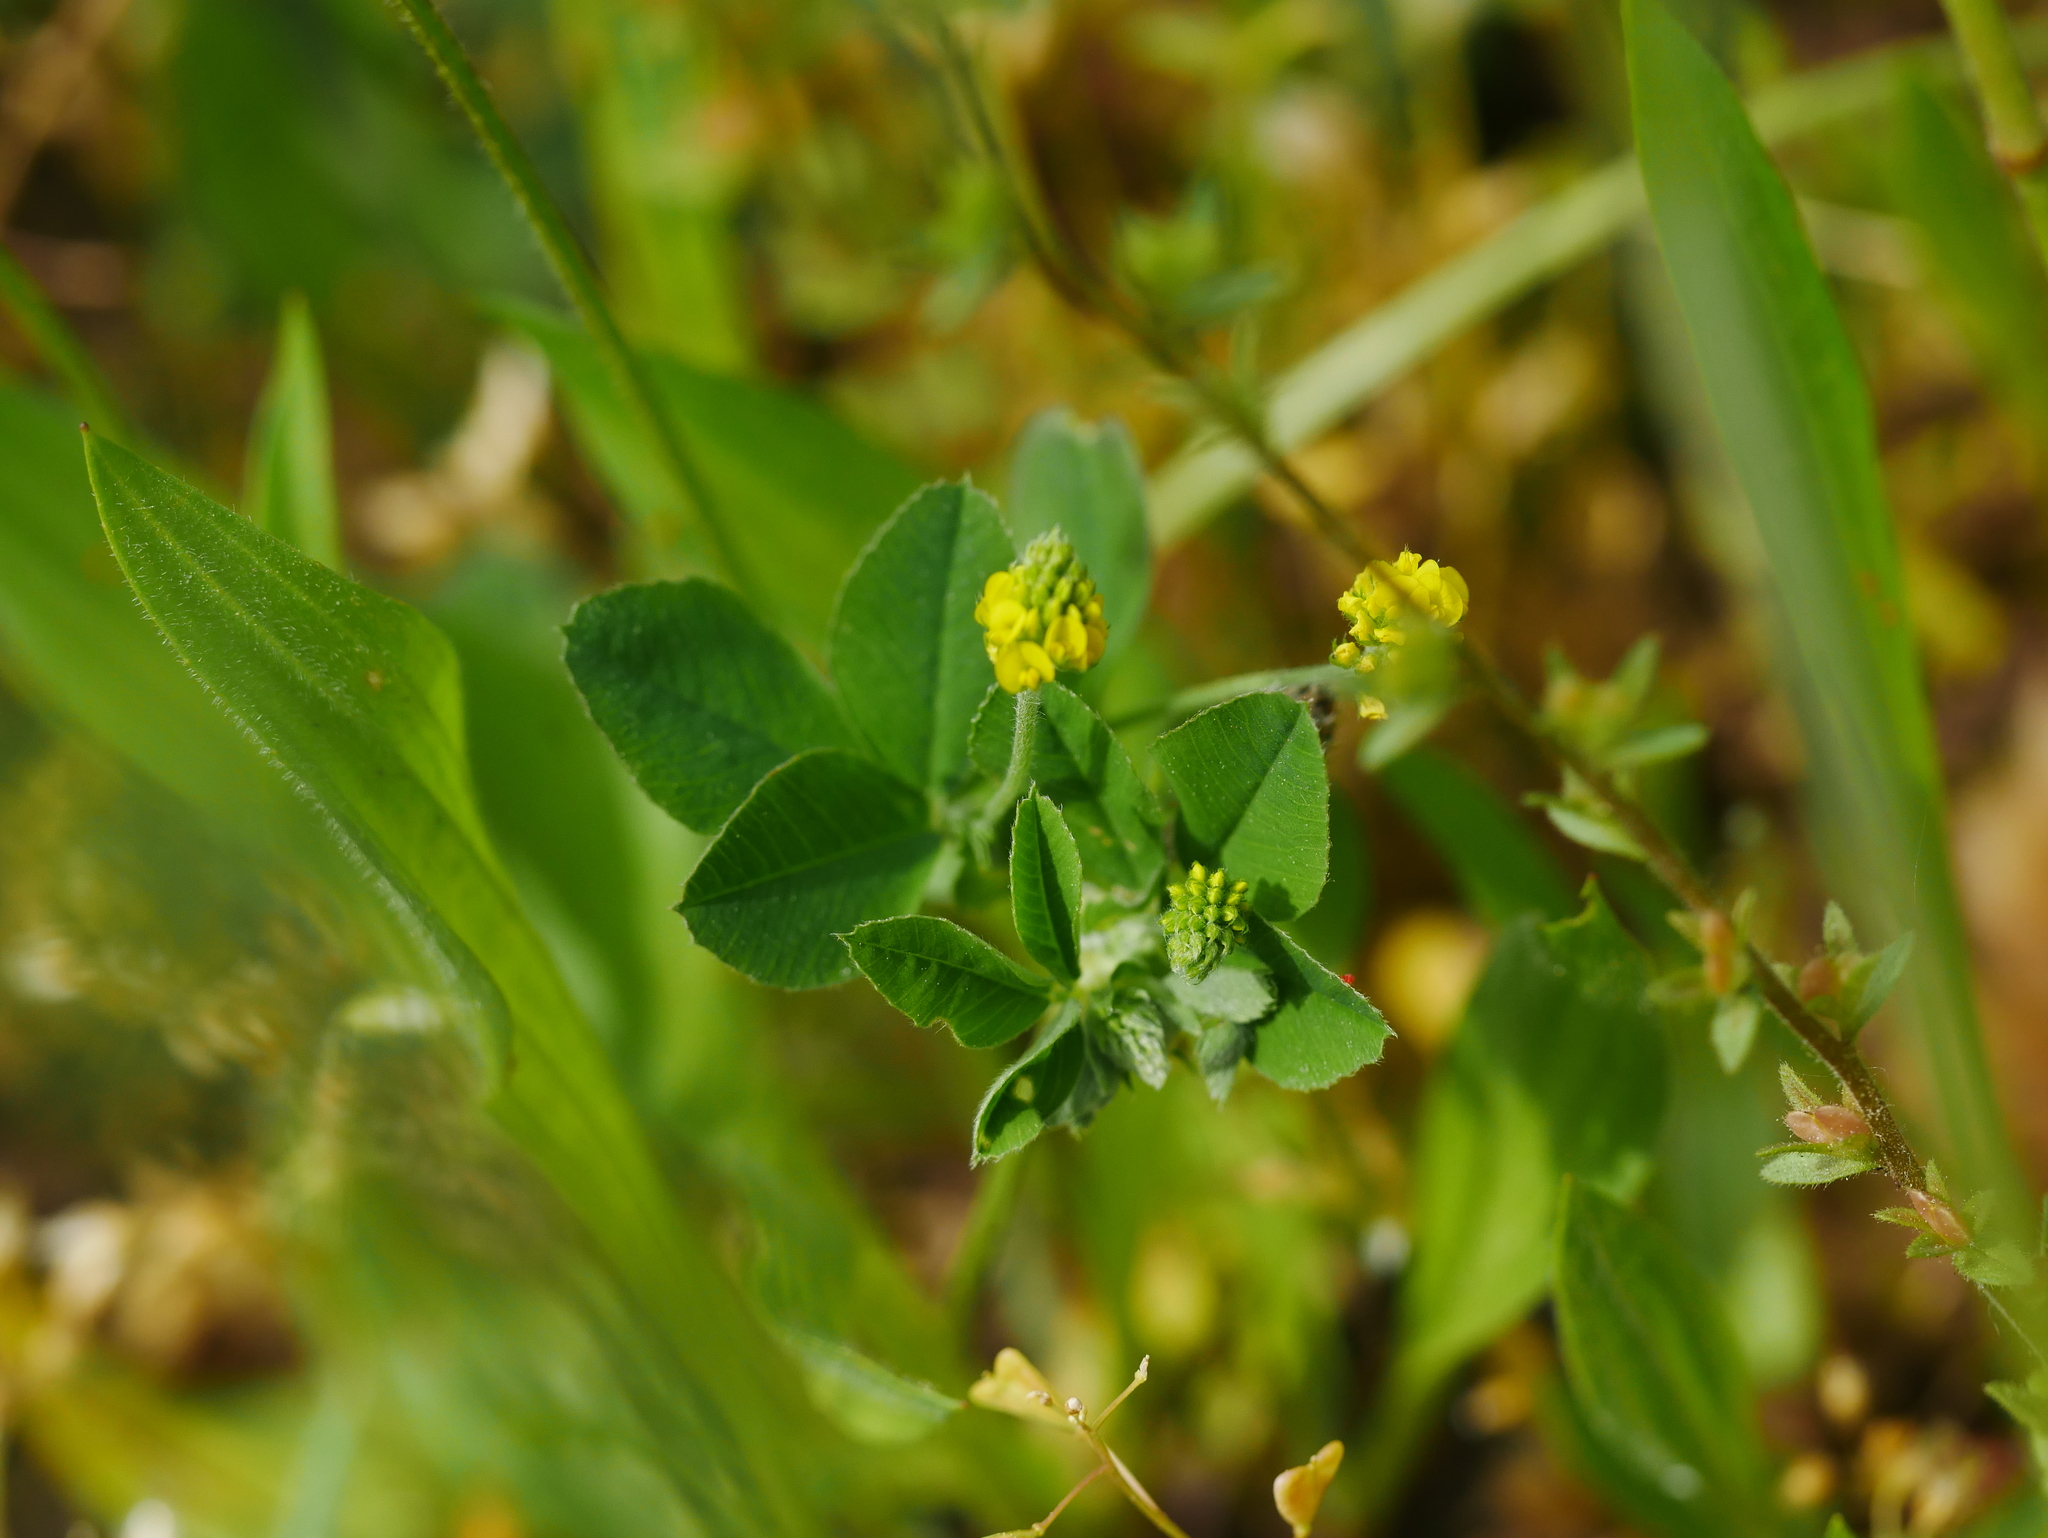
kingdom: Plantae
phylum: Tracheophyta
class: Magnoliopsida
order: Fabales
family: Fabaceae
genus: Medicago
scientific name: Medicago lupulina
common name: Black medick
